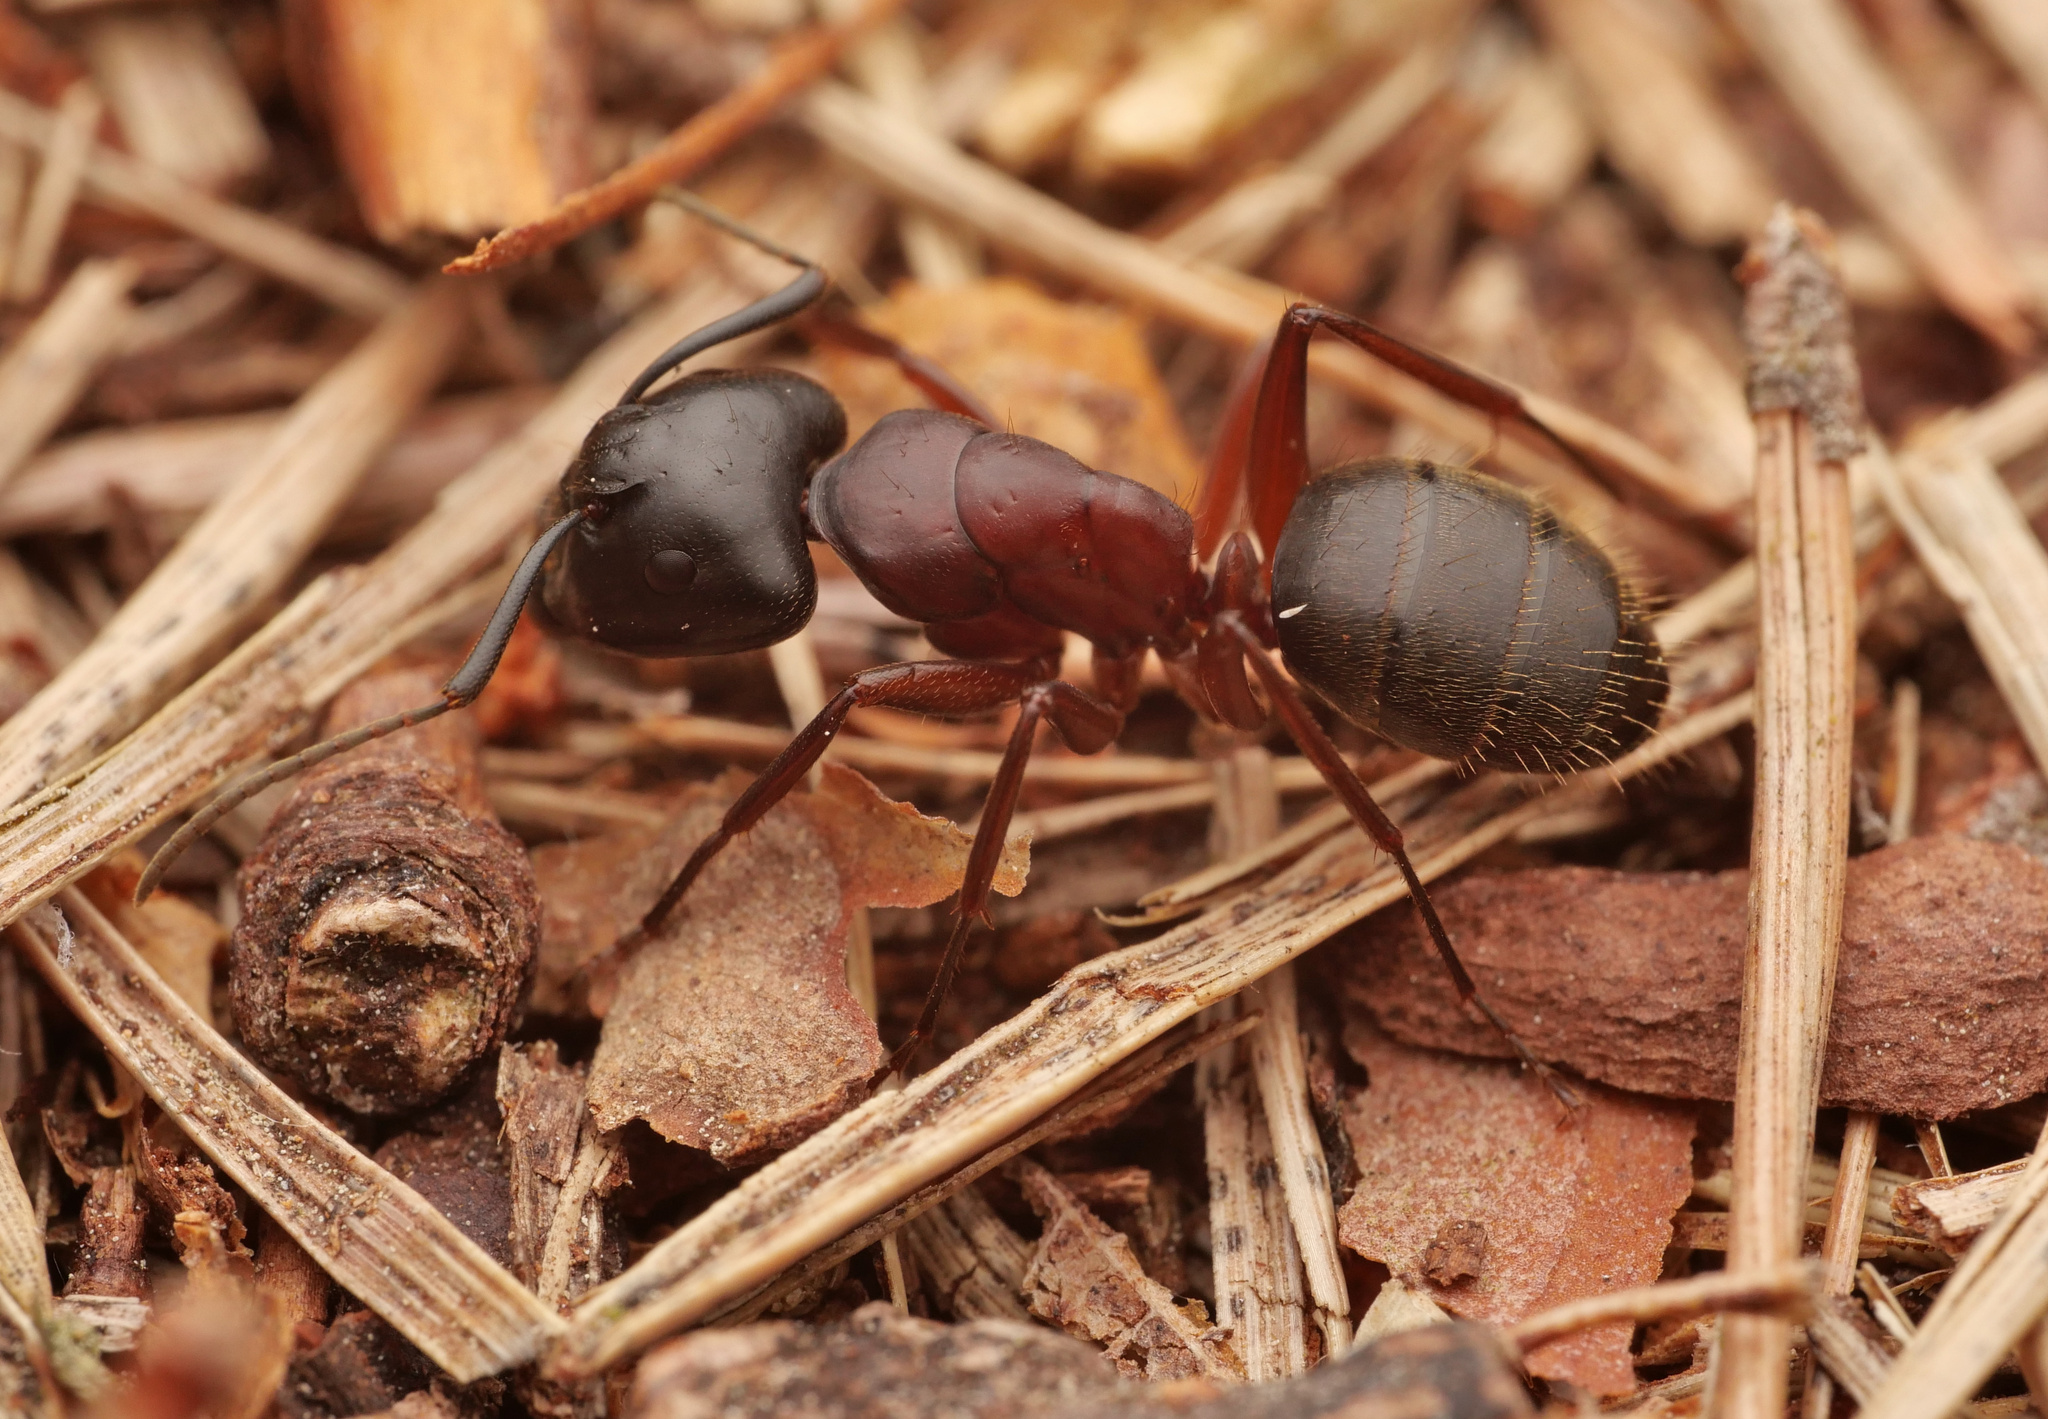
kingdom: Animalia
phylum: Arthropoda
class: Insecta
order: Hymenoptera
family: Formicidae
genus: Camponotus
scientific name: Camponotus herculeanus
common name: Hercules ant
